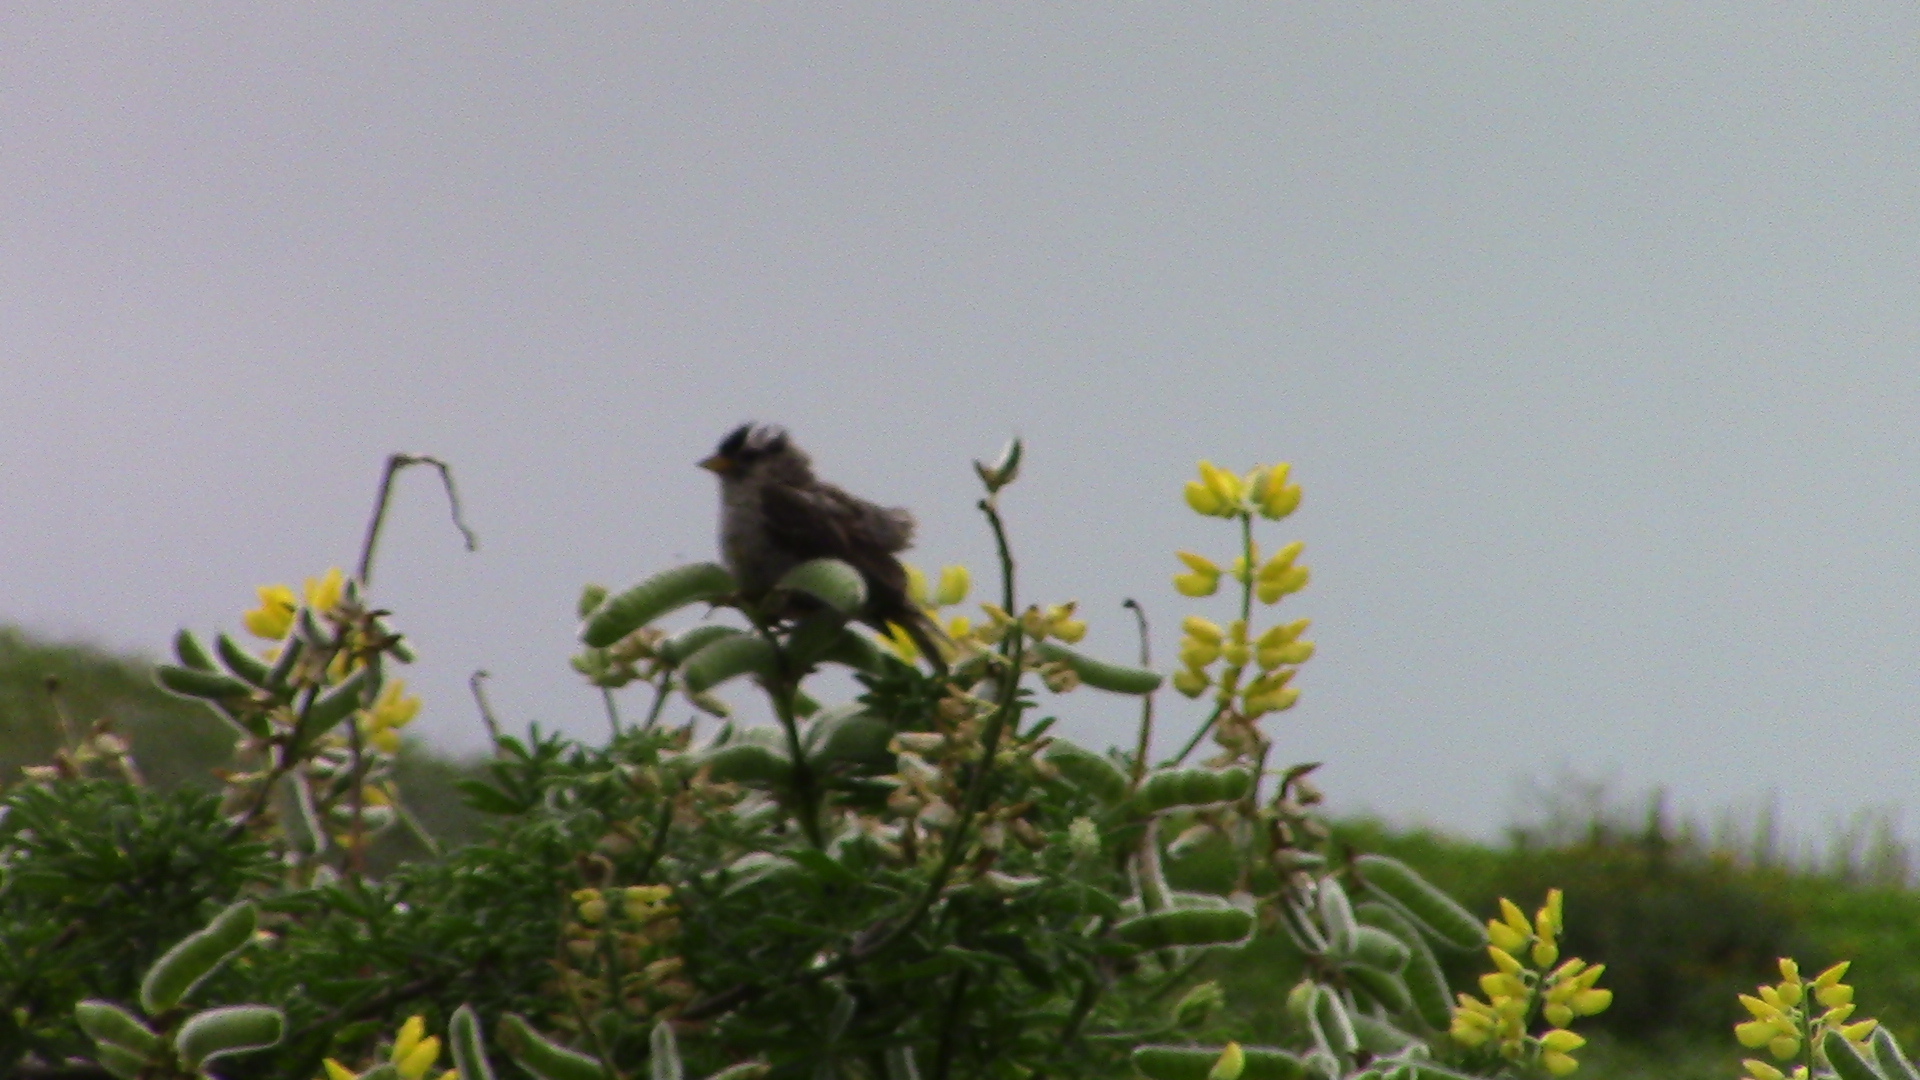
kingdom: Animalia
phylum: Chordata
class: Aves
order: Passeriformes
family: Passerellidae
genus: Zonotrichia
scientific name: Zonotrichia leucophrys
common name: White-crowned sparrow
